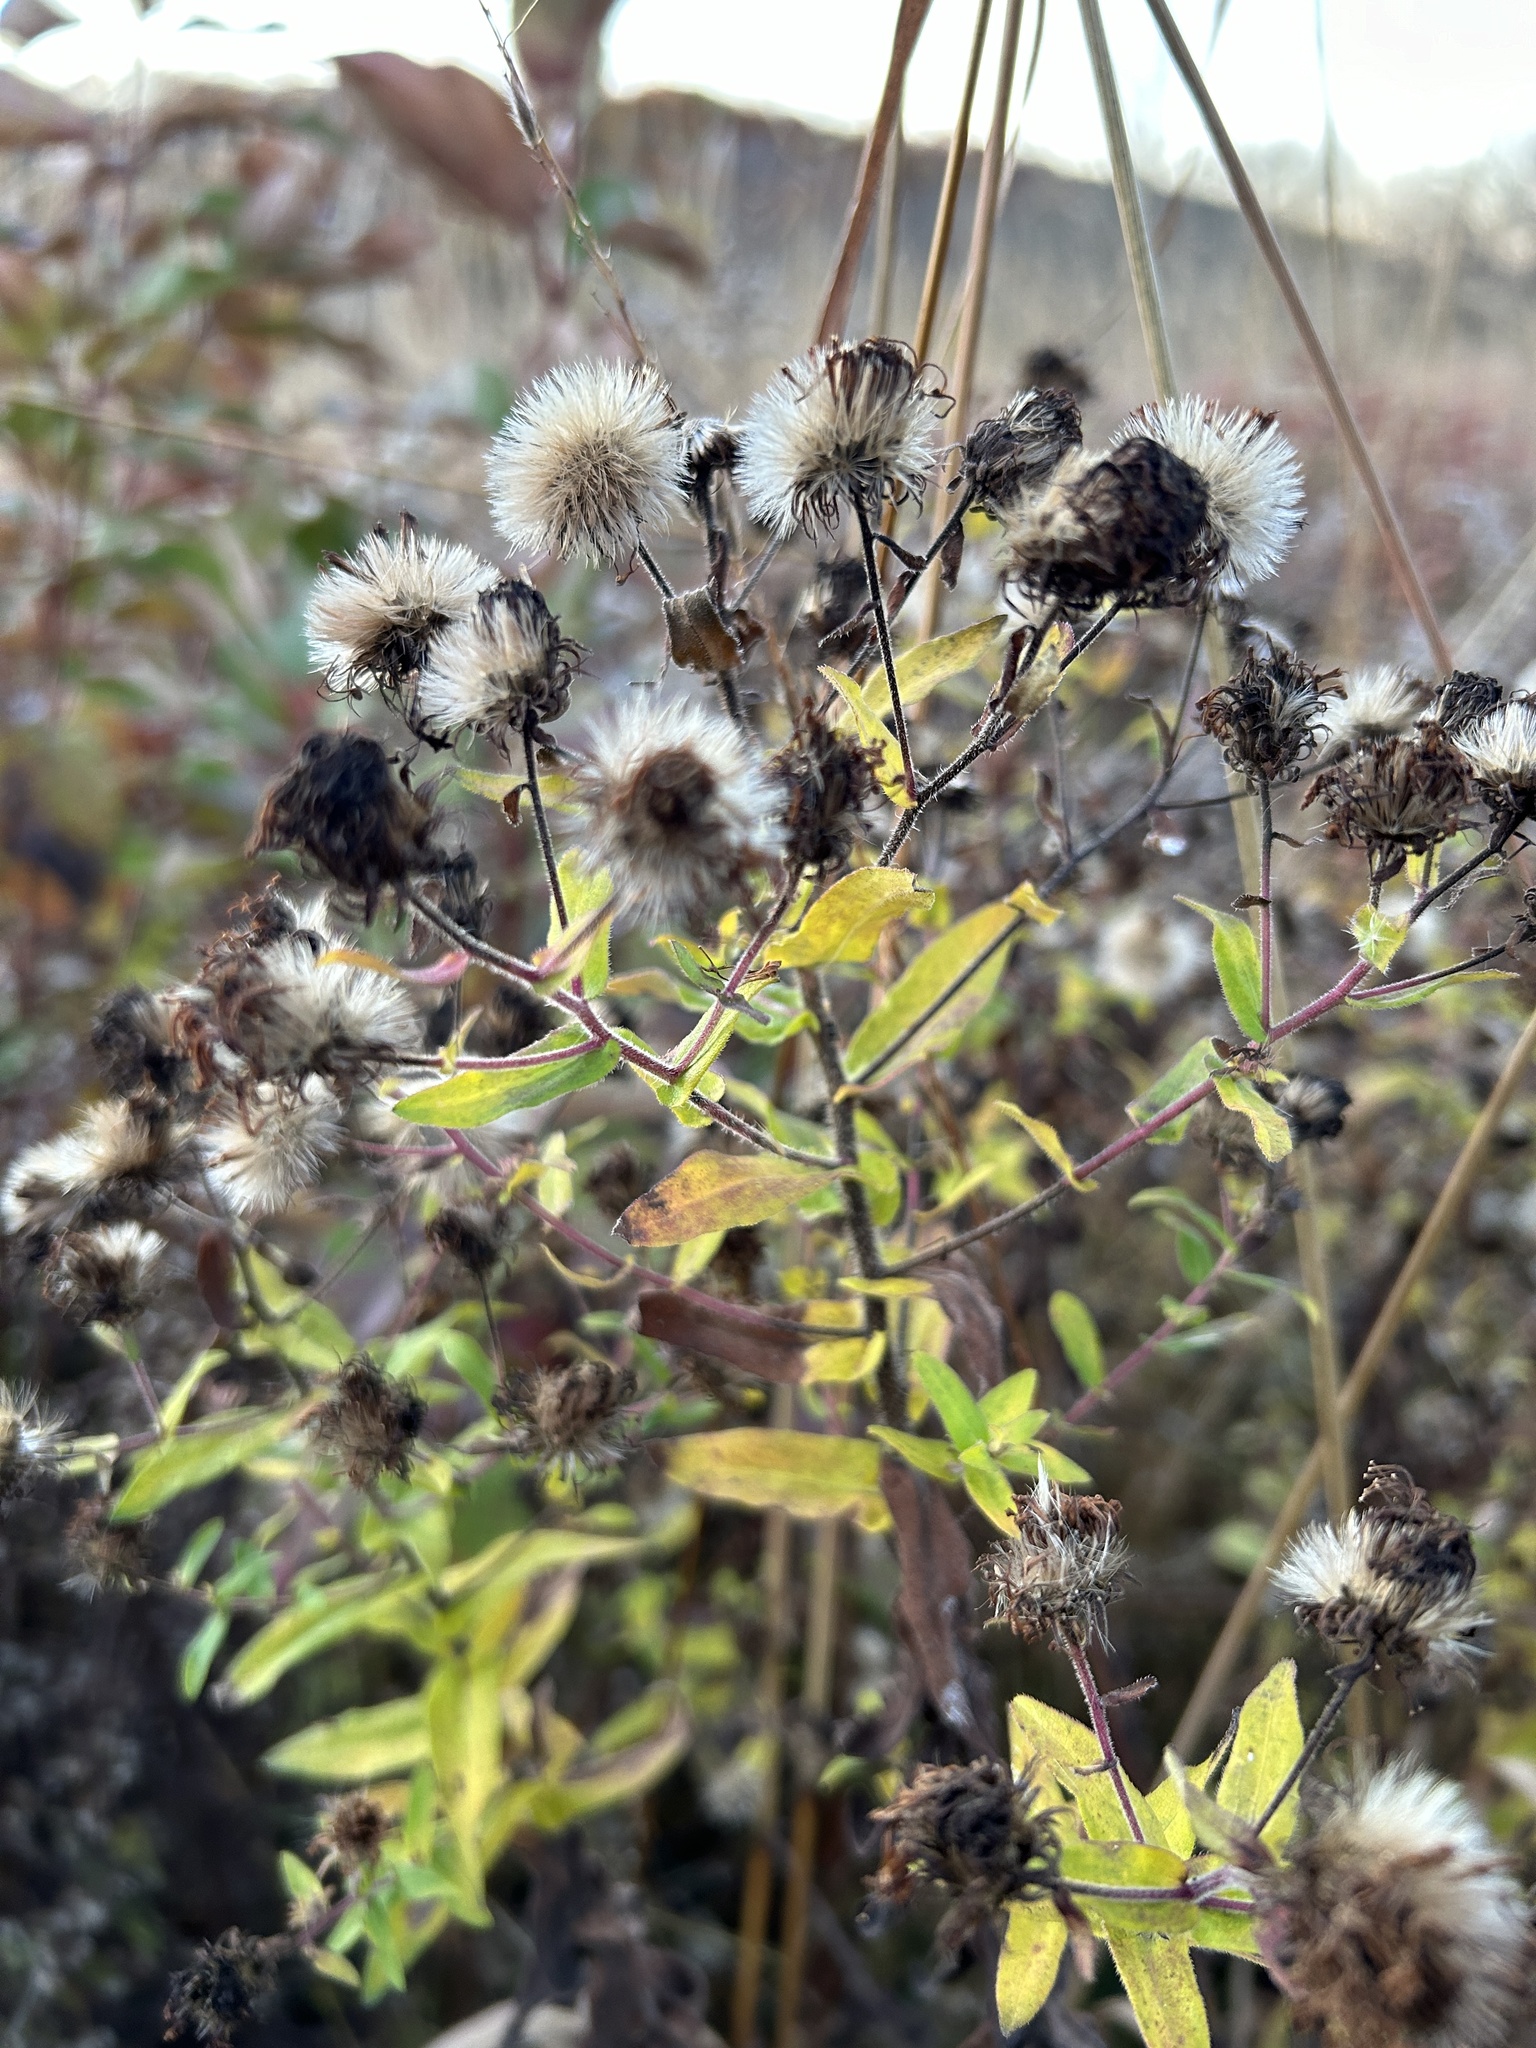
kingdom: Plantae
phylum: Tracheophyta
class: Magnoliopsida
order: Asterales
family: Asteraceae
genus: Symphyotrichum
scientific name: Symphyotrichum novae-angliae
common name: Michaelmas daisy
